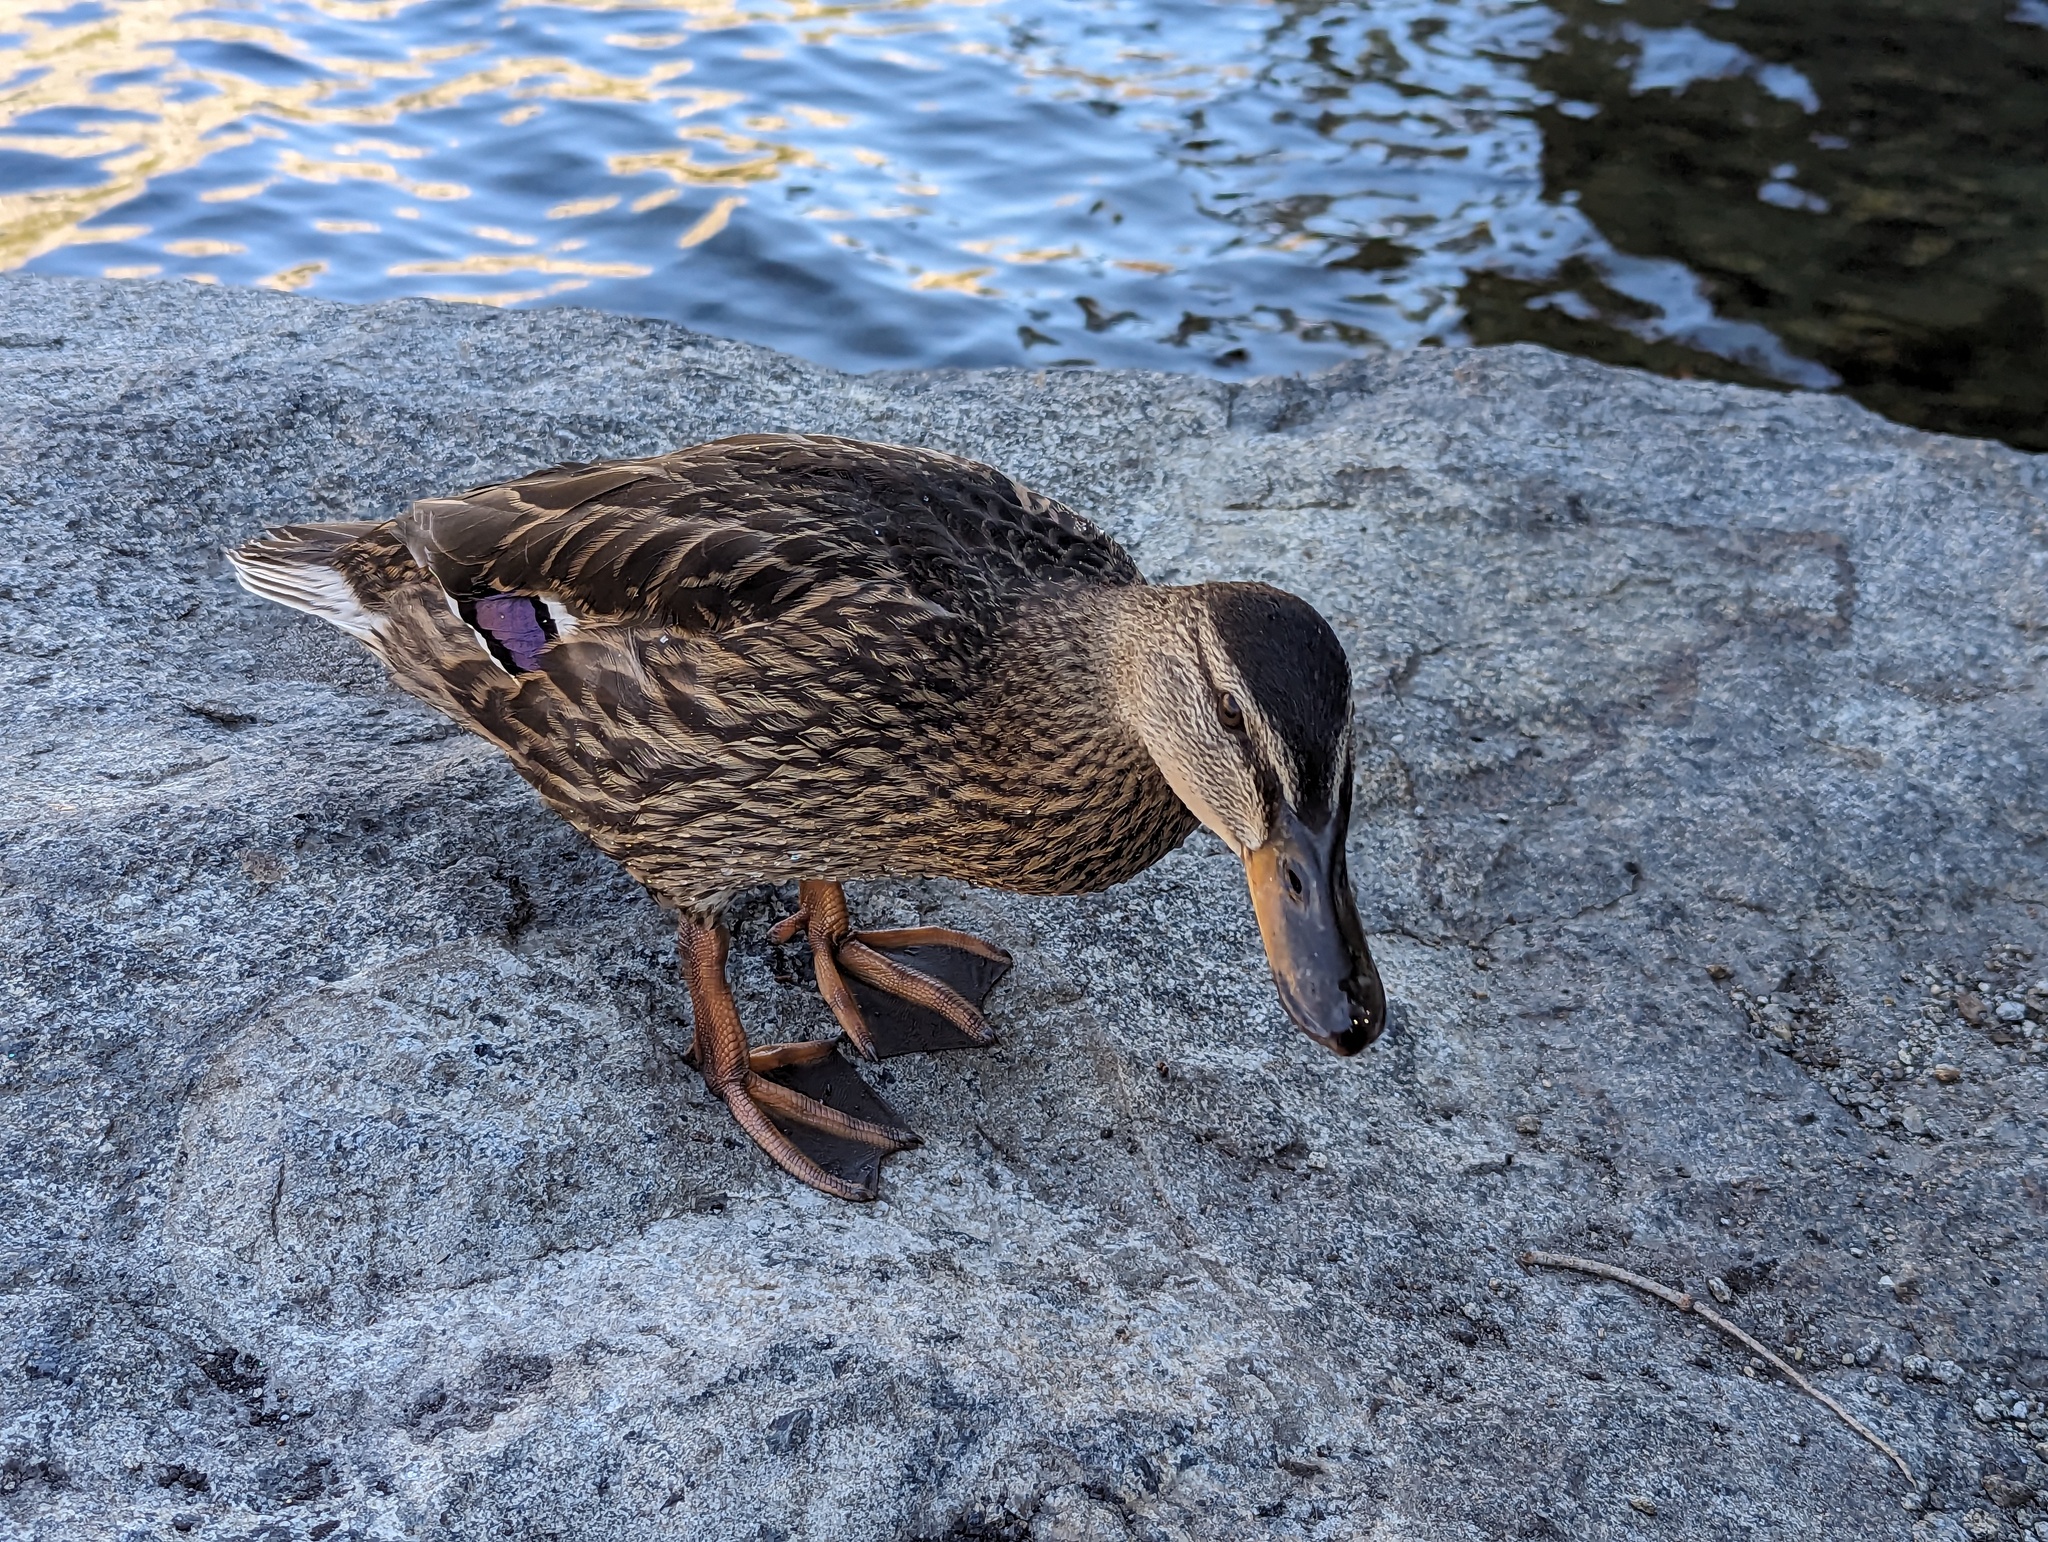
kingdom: Animalia
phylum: Chordata
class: Aves
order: Anseriformes
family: Anatidae
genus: Anas
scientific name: Anas platyrhynchos
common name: Mallard
